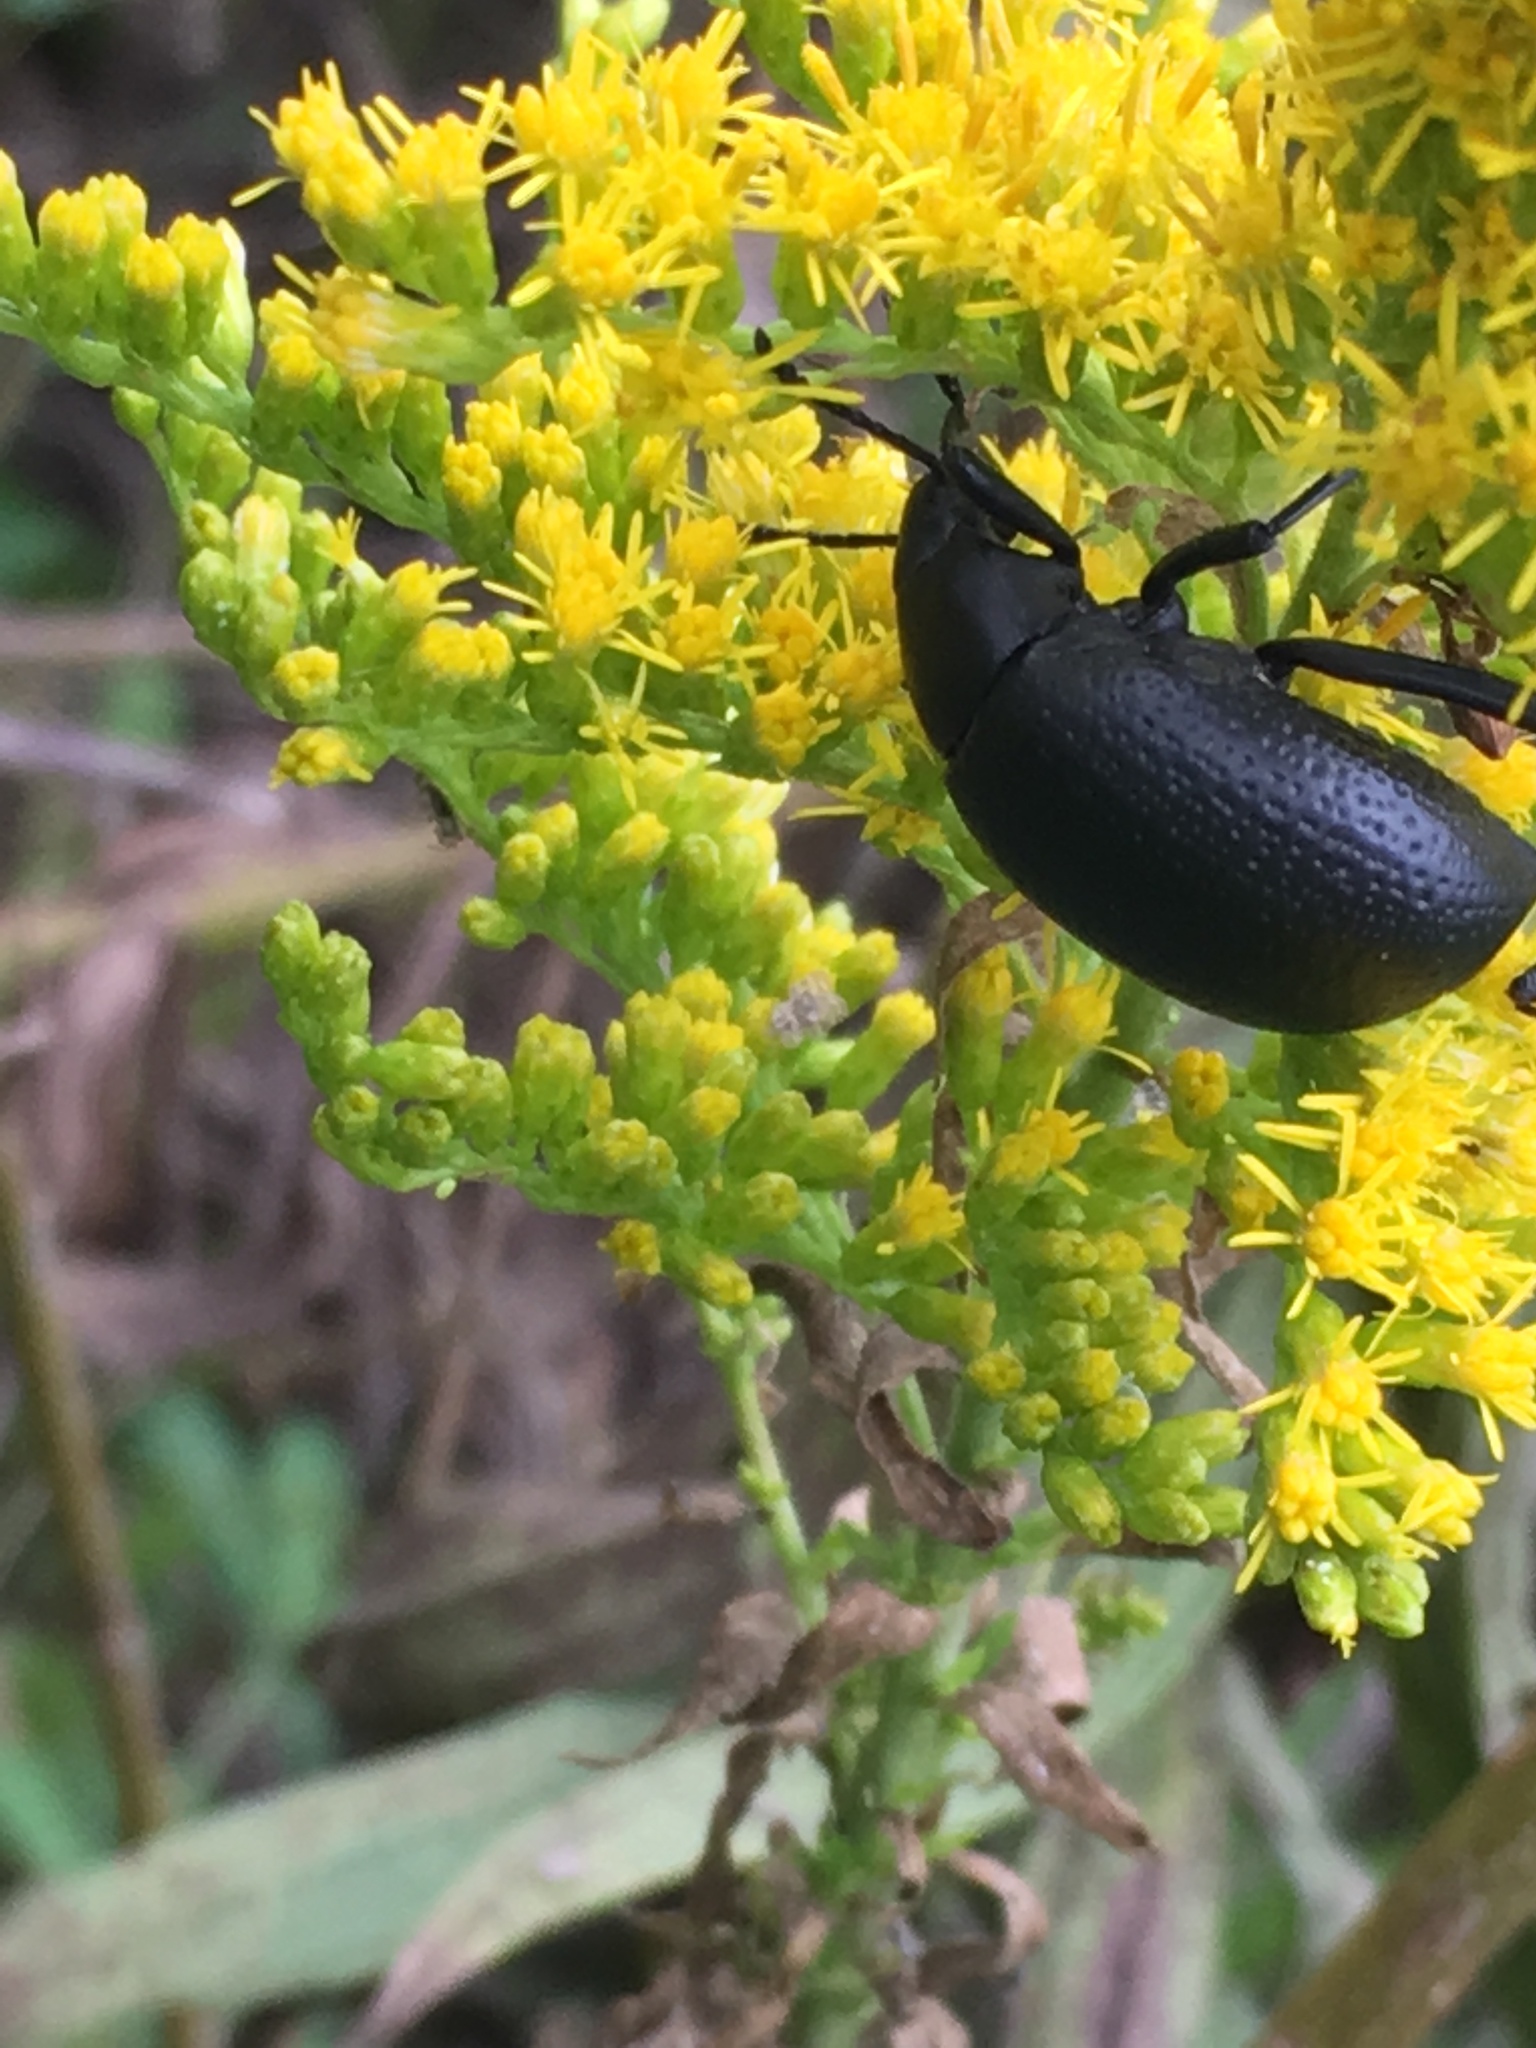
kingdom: Animalia
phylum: Arthropoda
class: Insecta
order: Coleoptera
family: Tenebrionidae
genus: Eleodes
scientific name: Eleodes goryi
